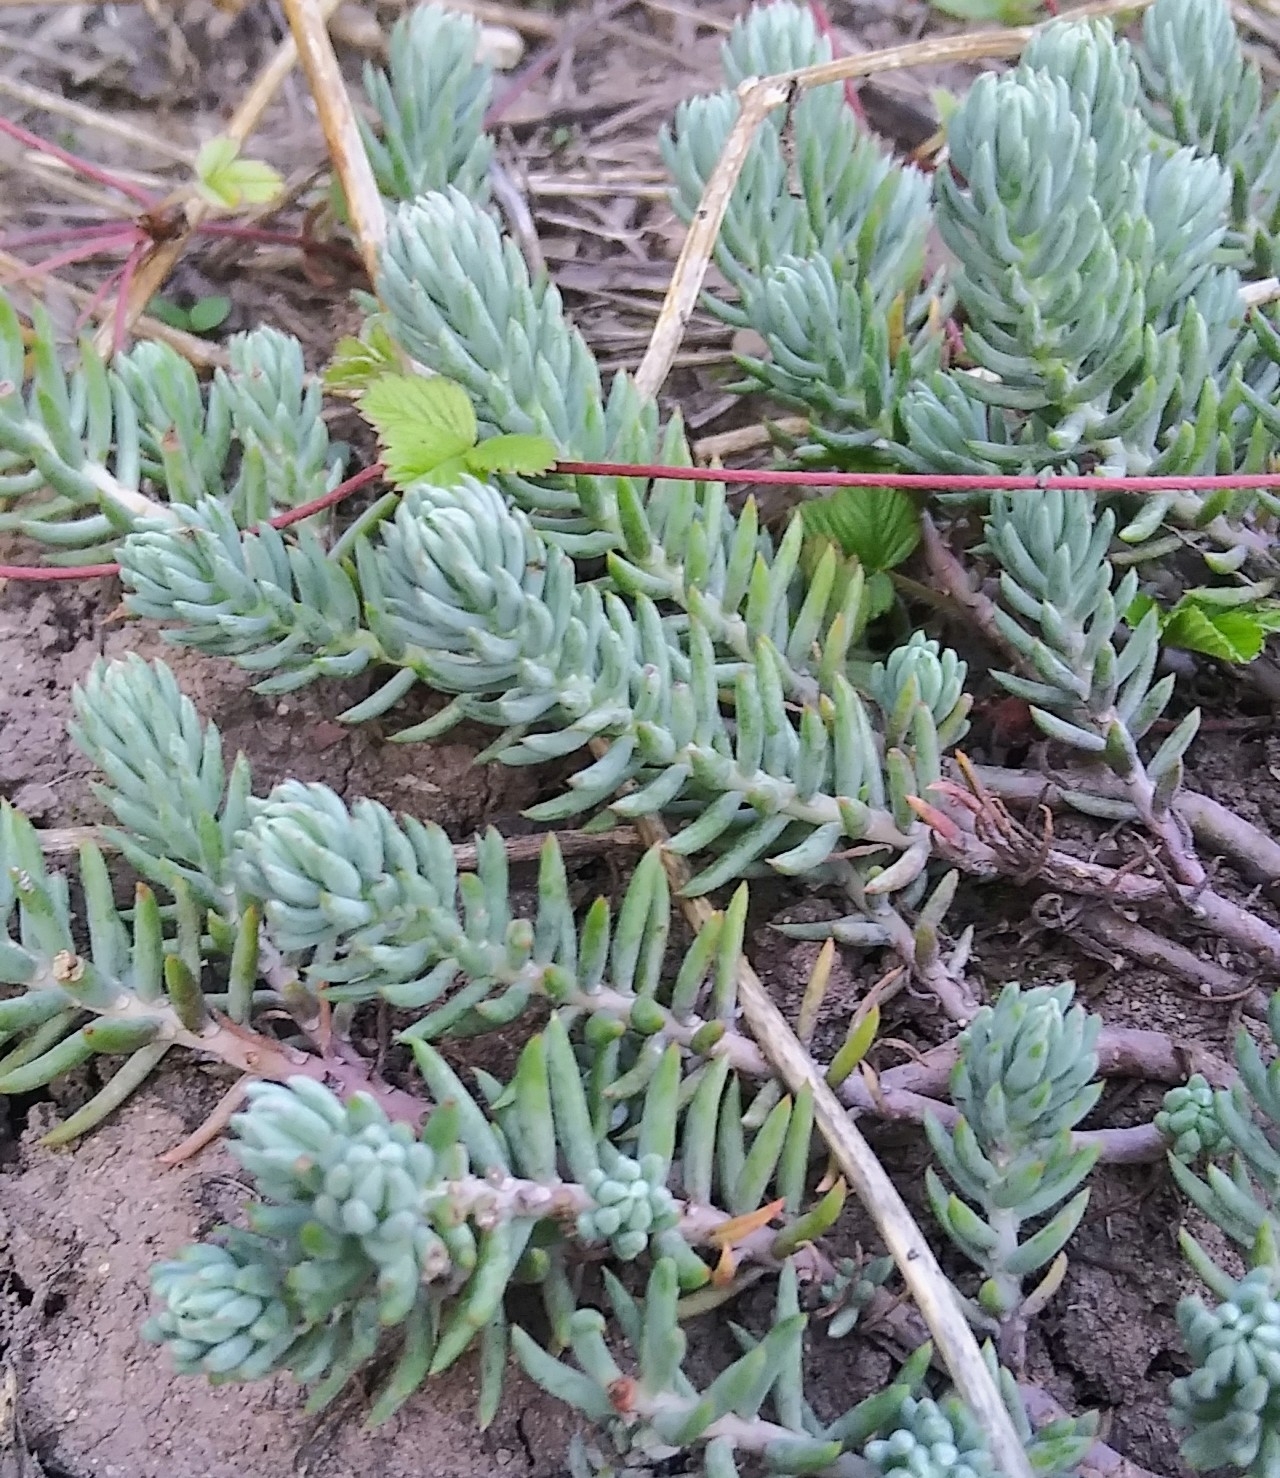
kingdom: Plantae
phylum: Tracheophyta
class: Magnoliopsida
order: Saxifragales
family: Crassulaceae
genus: Petrosedum
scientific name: Petrosedum rupestre
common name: Jenny's stonecrop
